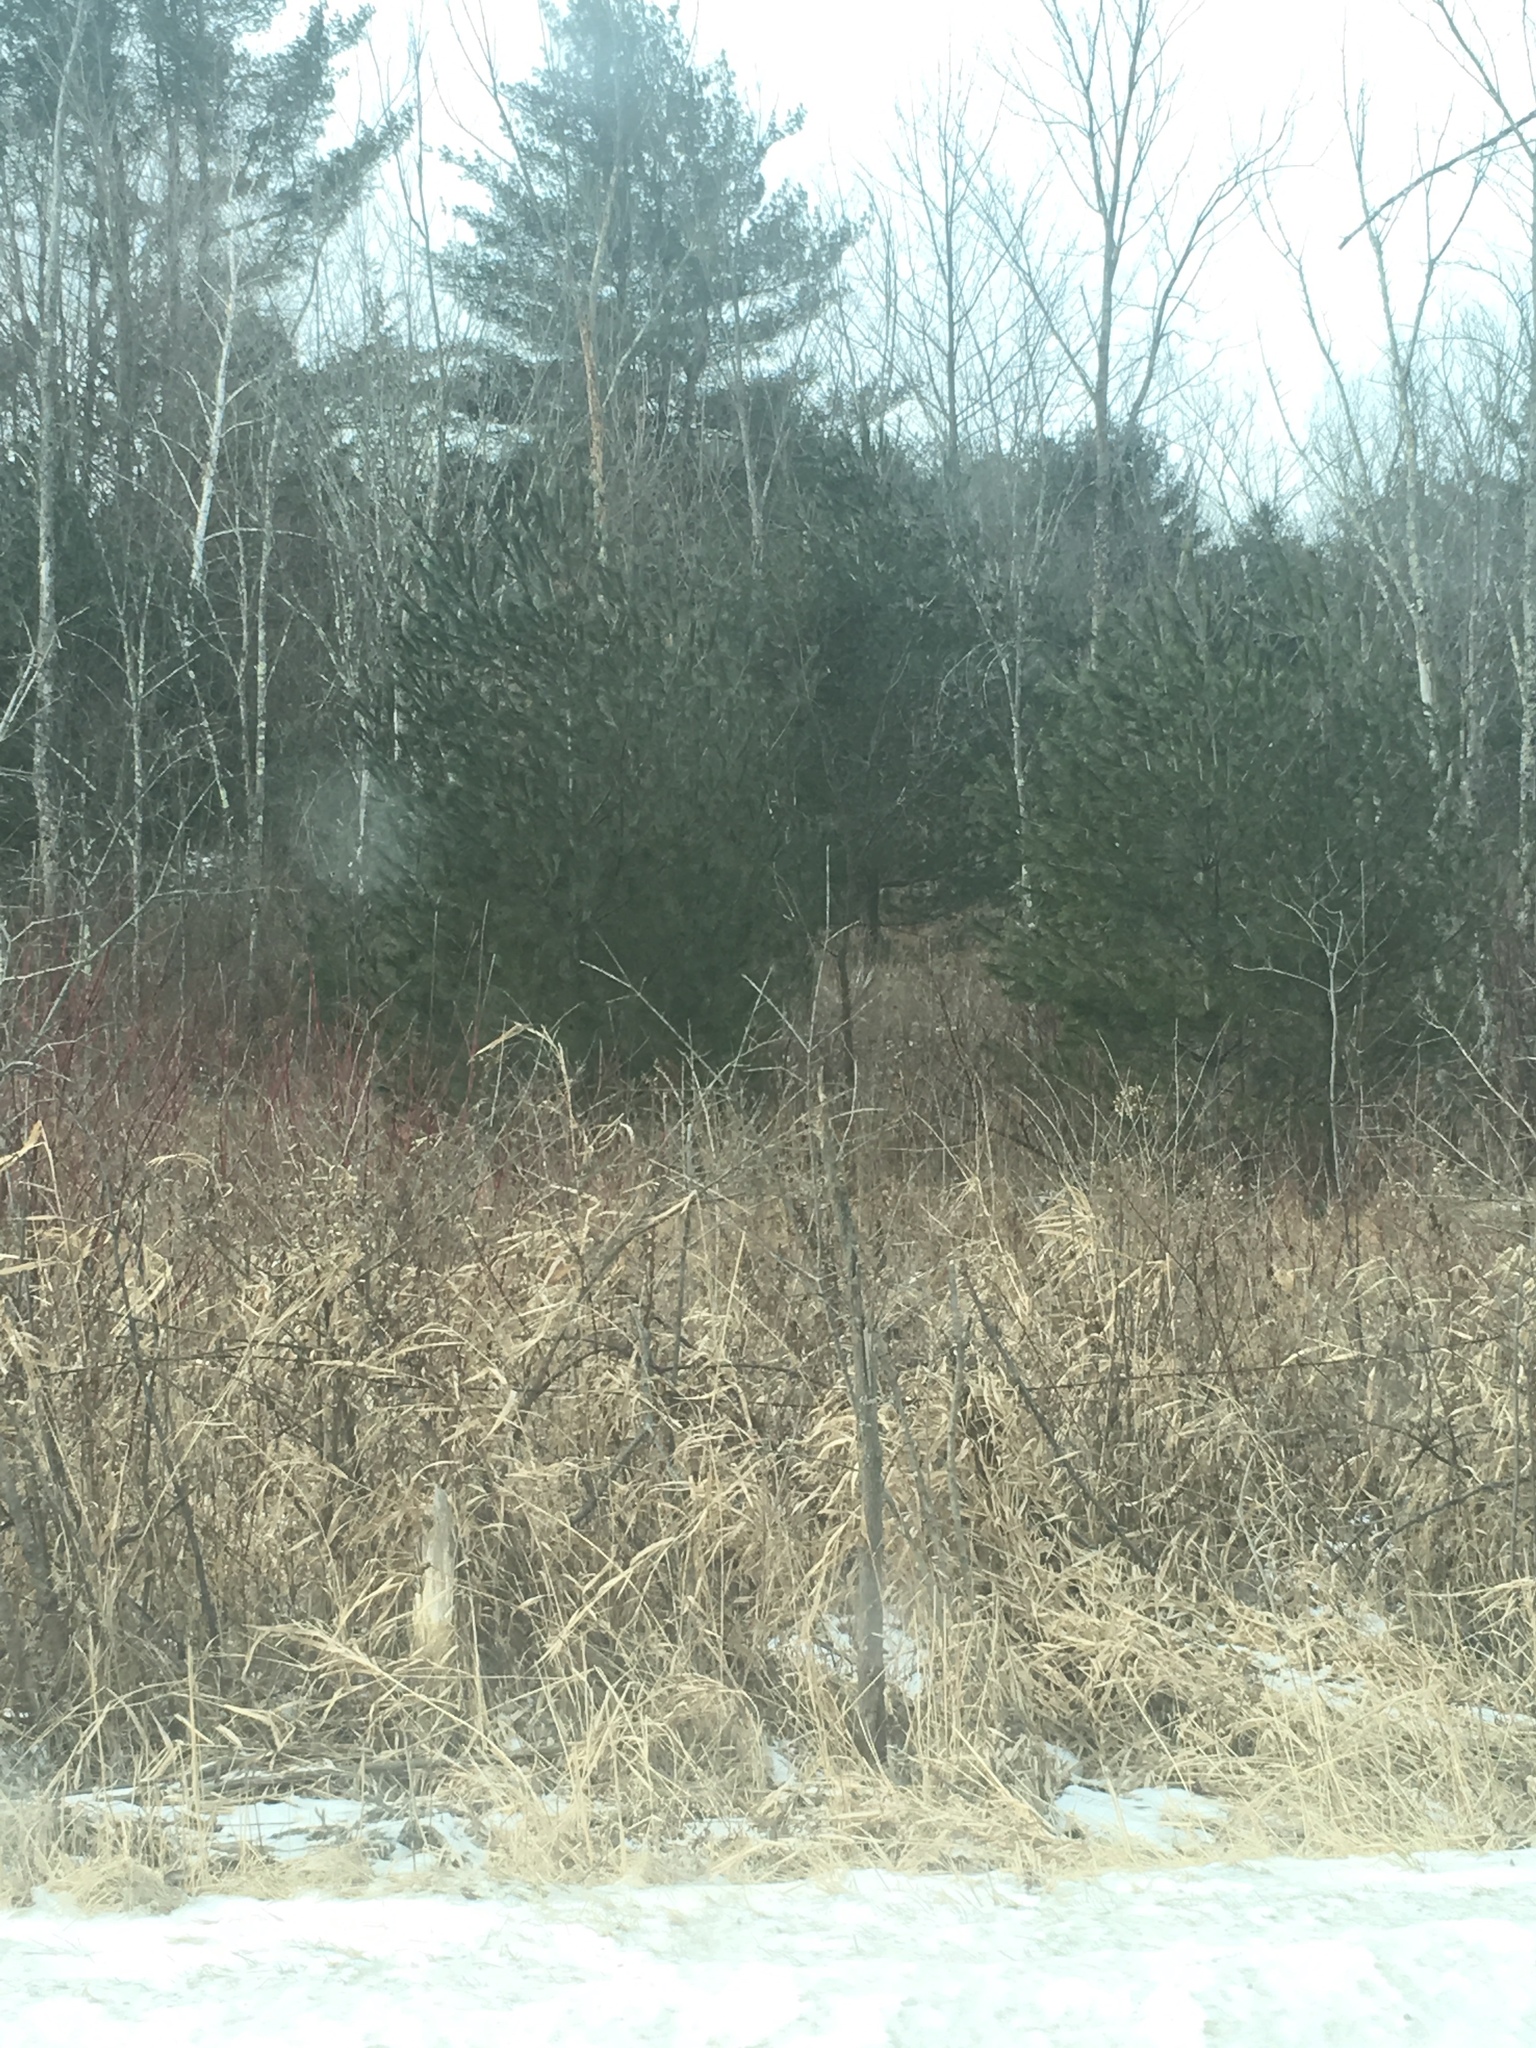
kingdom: Plantae
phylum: Tracheophyta
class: Pinopsida
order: Pinales
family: Pinaceae
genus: Pinus
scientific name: Pinus strobus
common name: Weymouth pine
